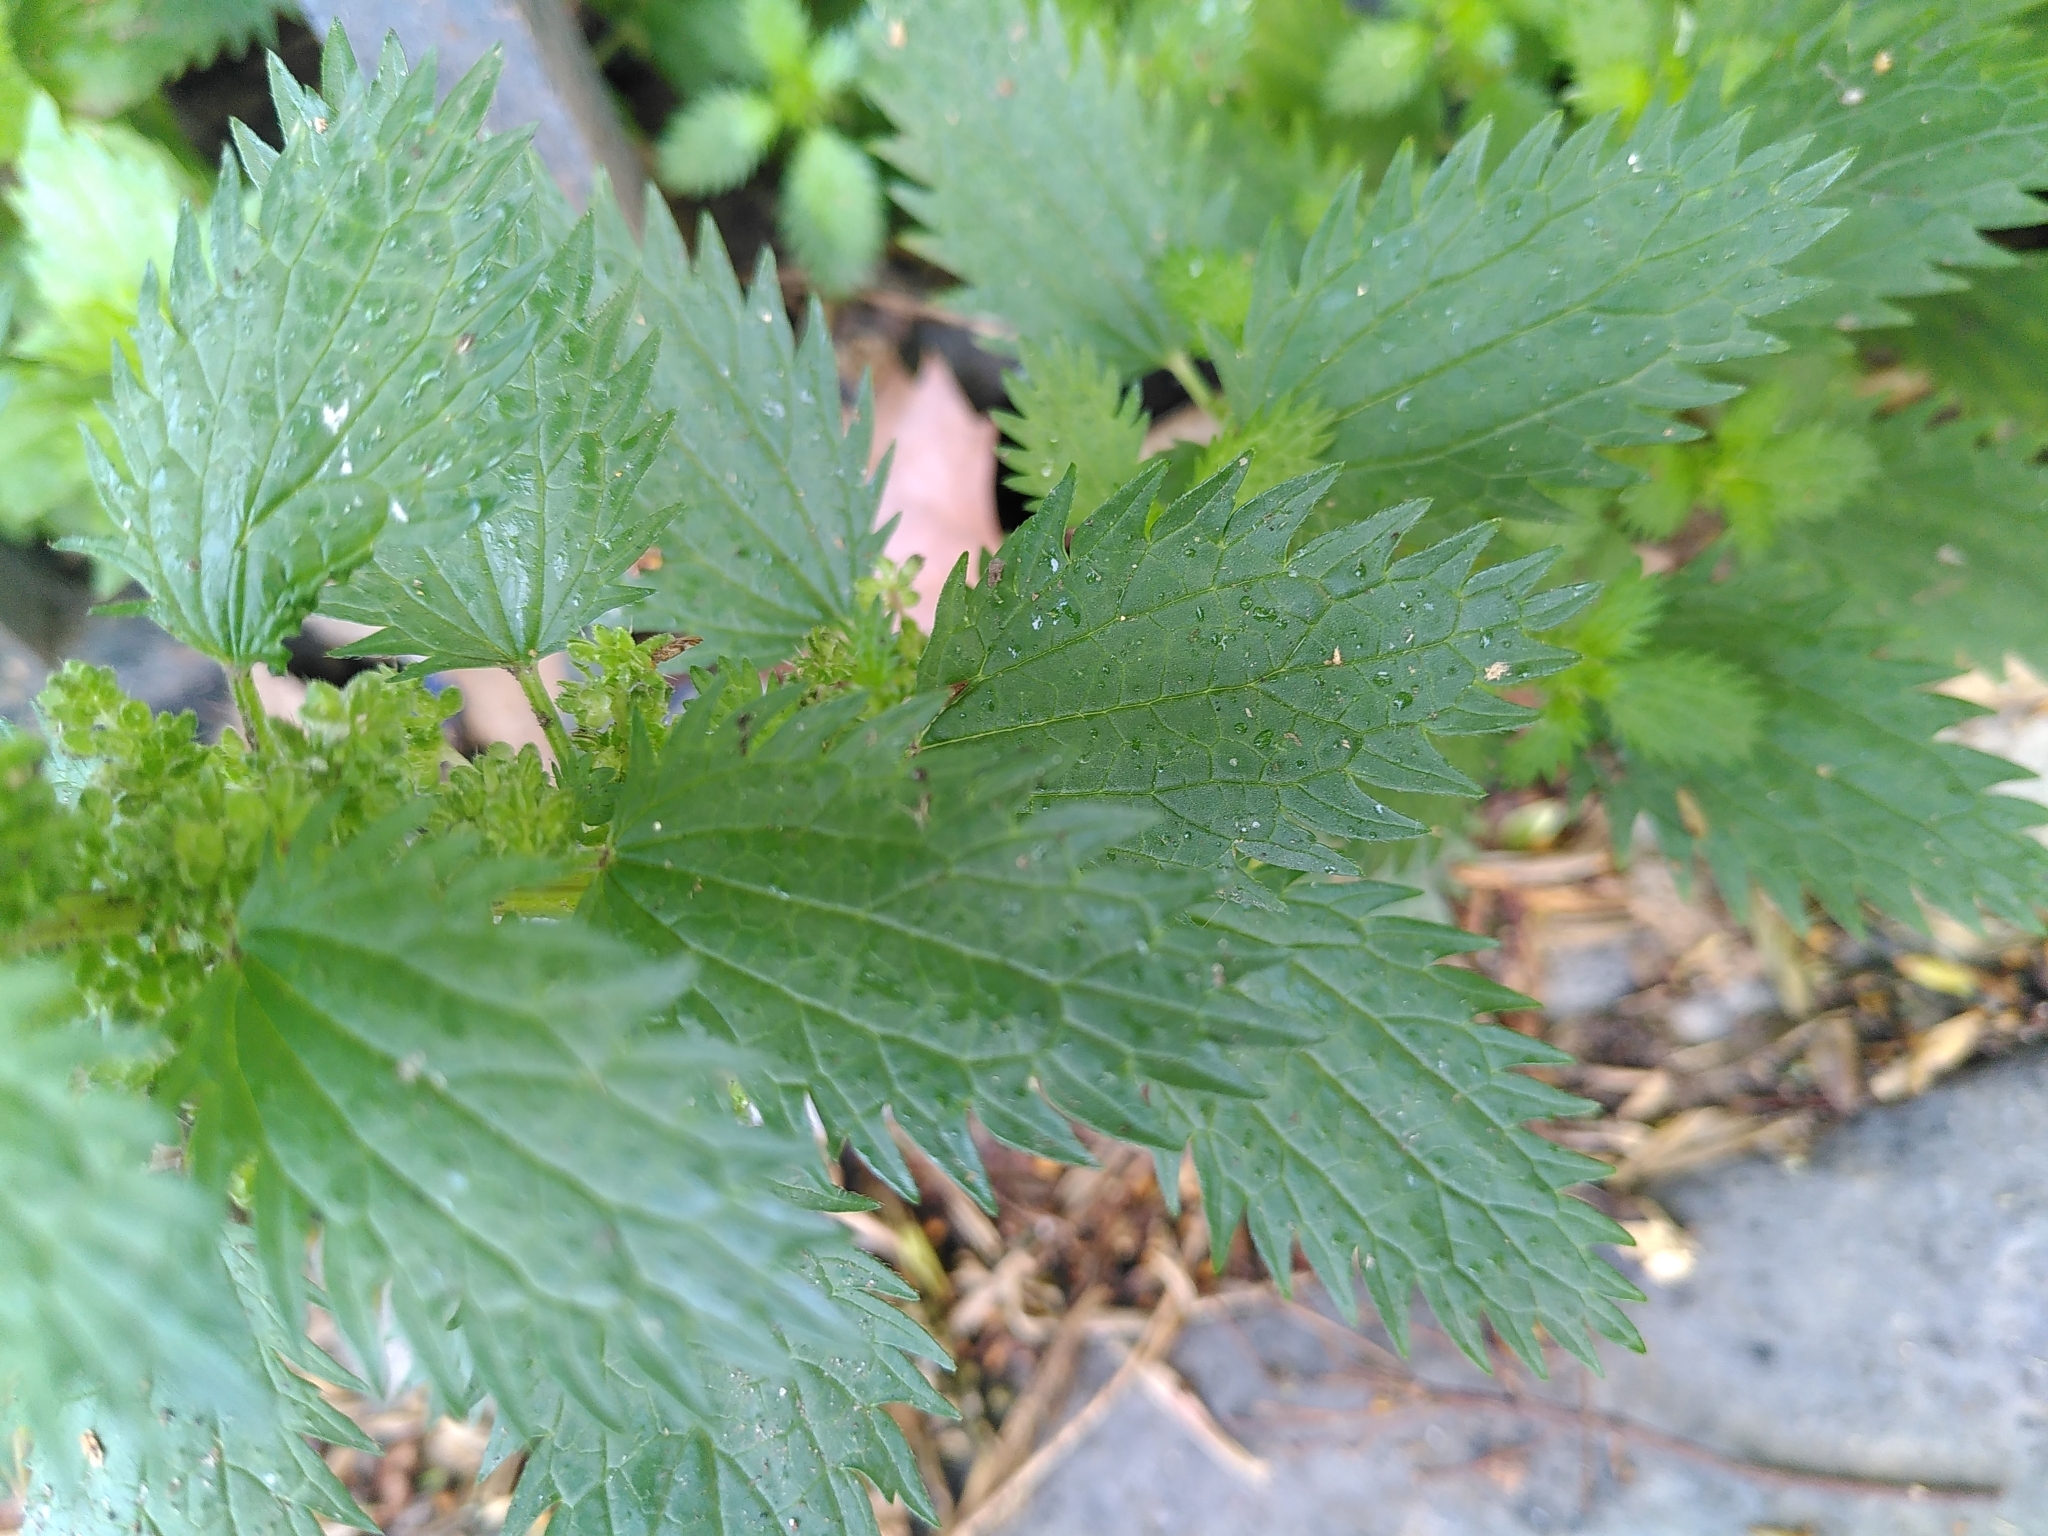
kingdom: Plantae
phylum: Tracheophyta
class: Magnoliopsida
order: Rosales
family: Urticaceae
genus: Urtica
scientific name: Urtica urens
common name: Dwarf nettle
